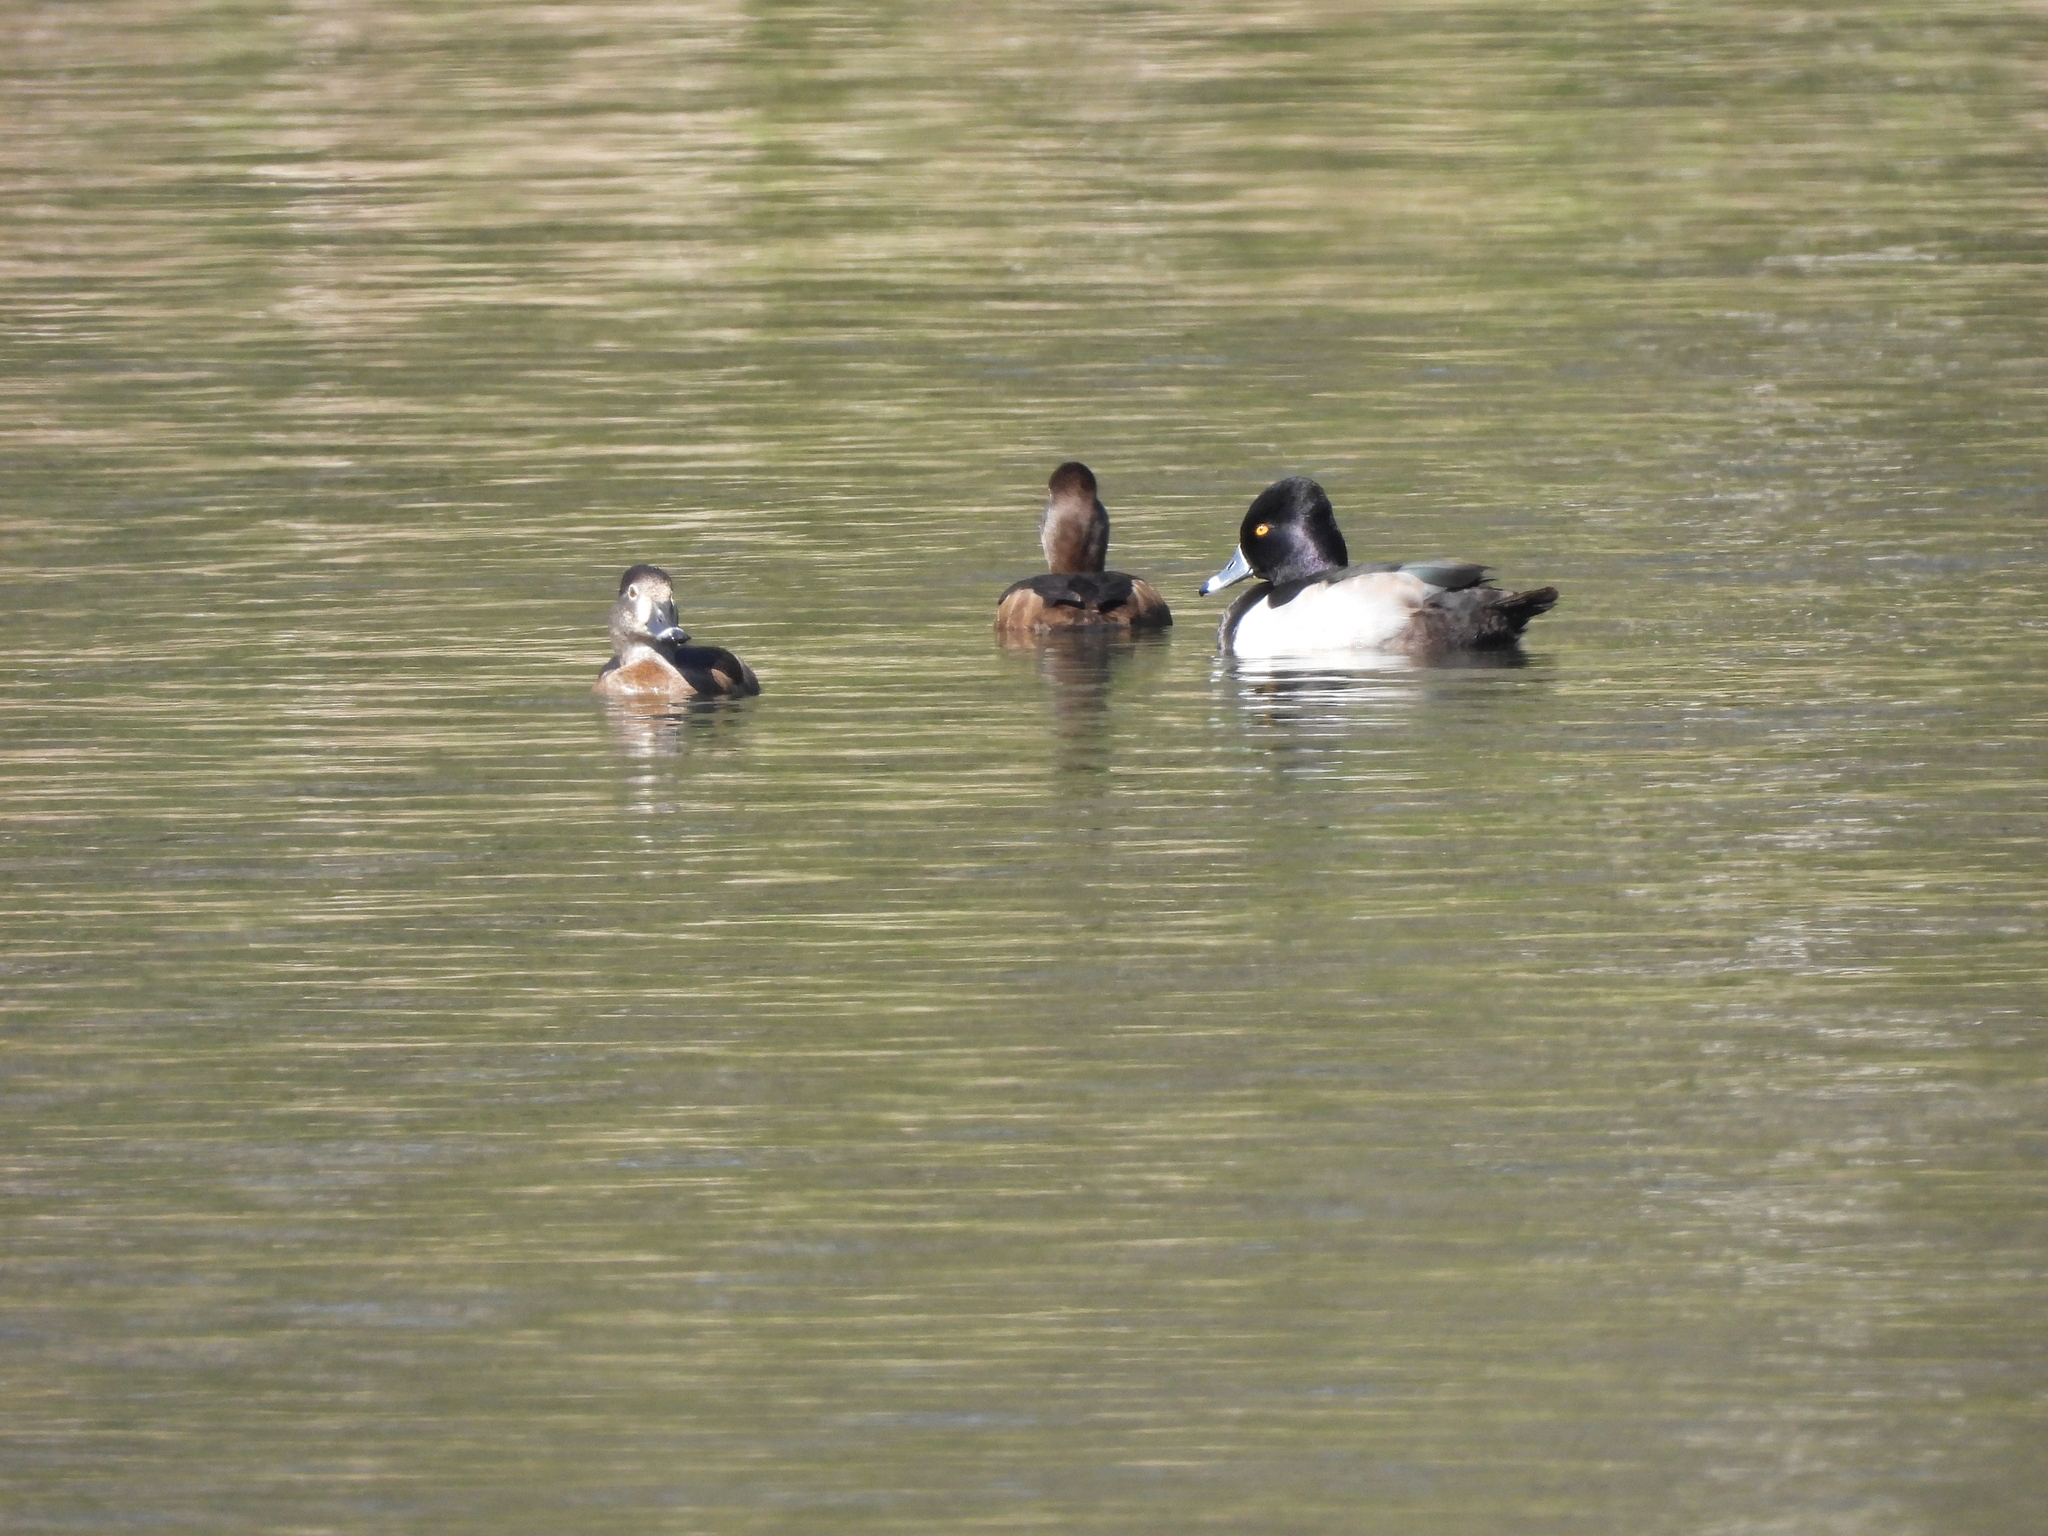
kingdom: Animalia
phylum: Chordata
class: Aves
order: Anseriformes
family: Anatidae
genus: Aythya
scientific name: Aythya collaris
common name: Ring-necked duck
